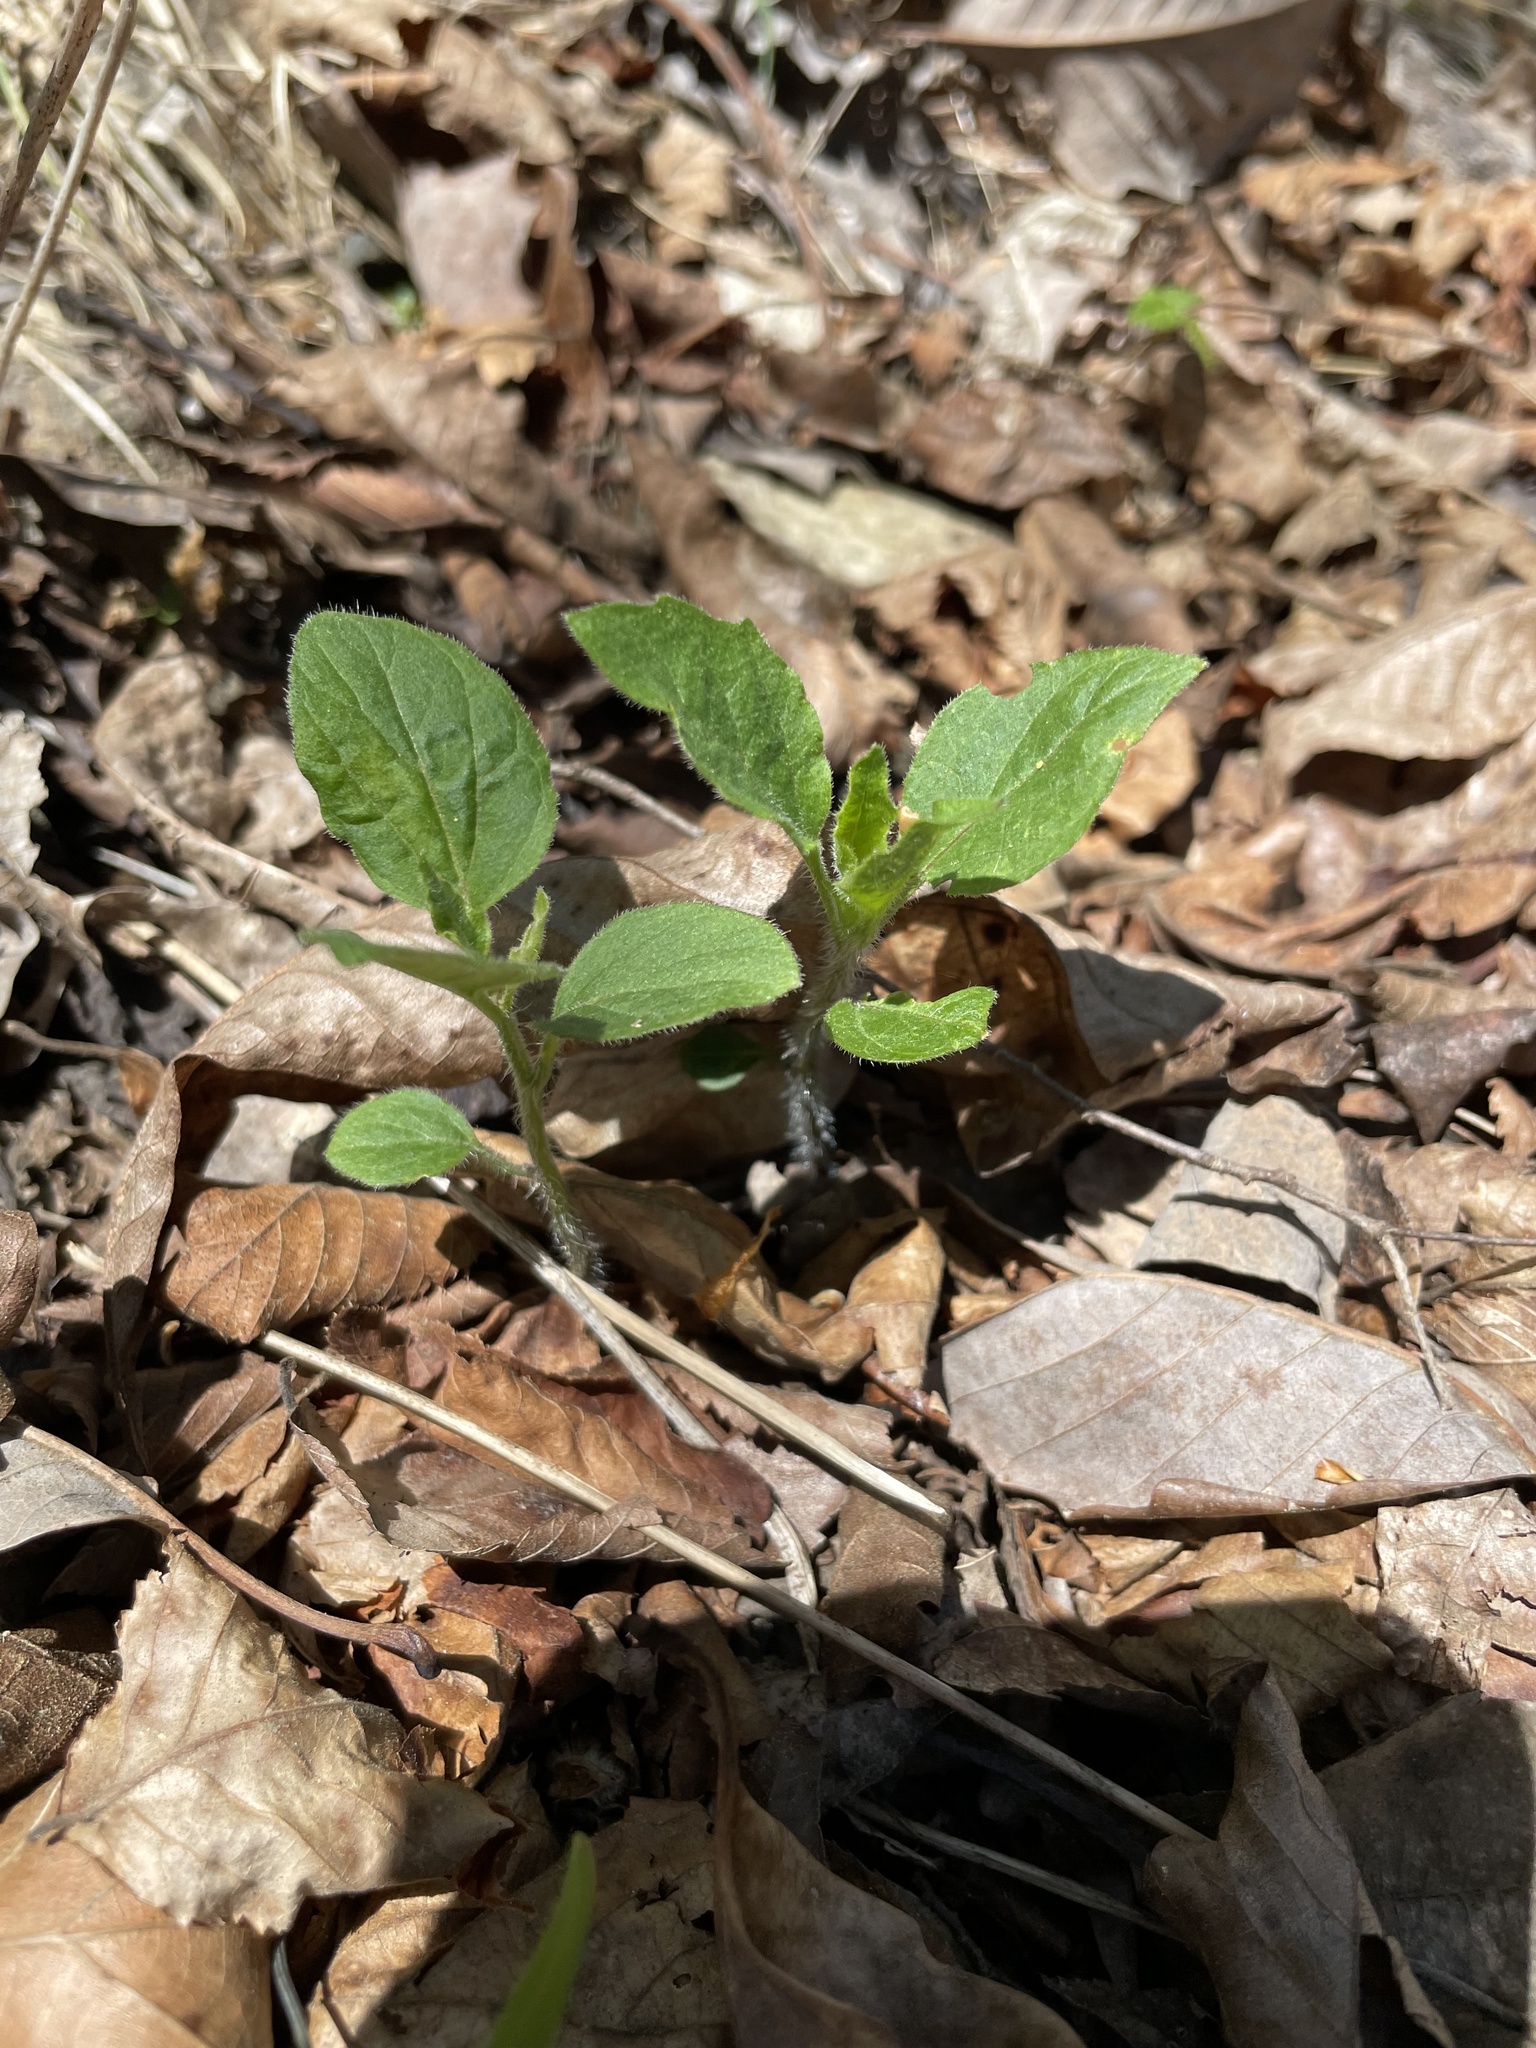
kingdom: Plantae
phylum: Tracheophyta
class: Magnoliopsida
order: Solanales
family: Solanaceae
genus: Physalis
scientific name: Physalis virginiana
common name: Virginia ground-cherry
